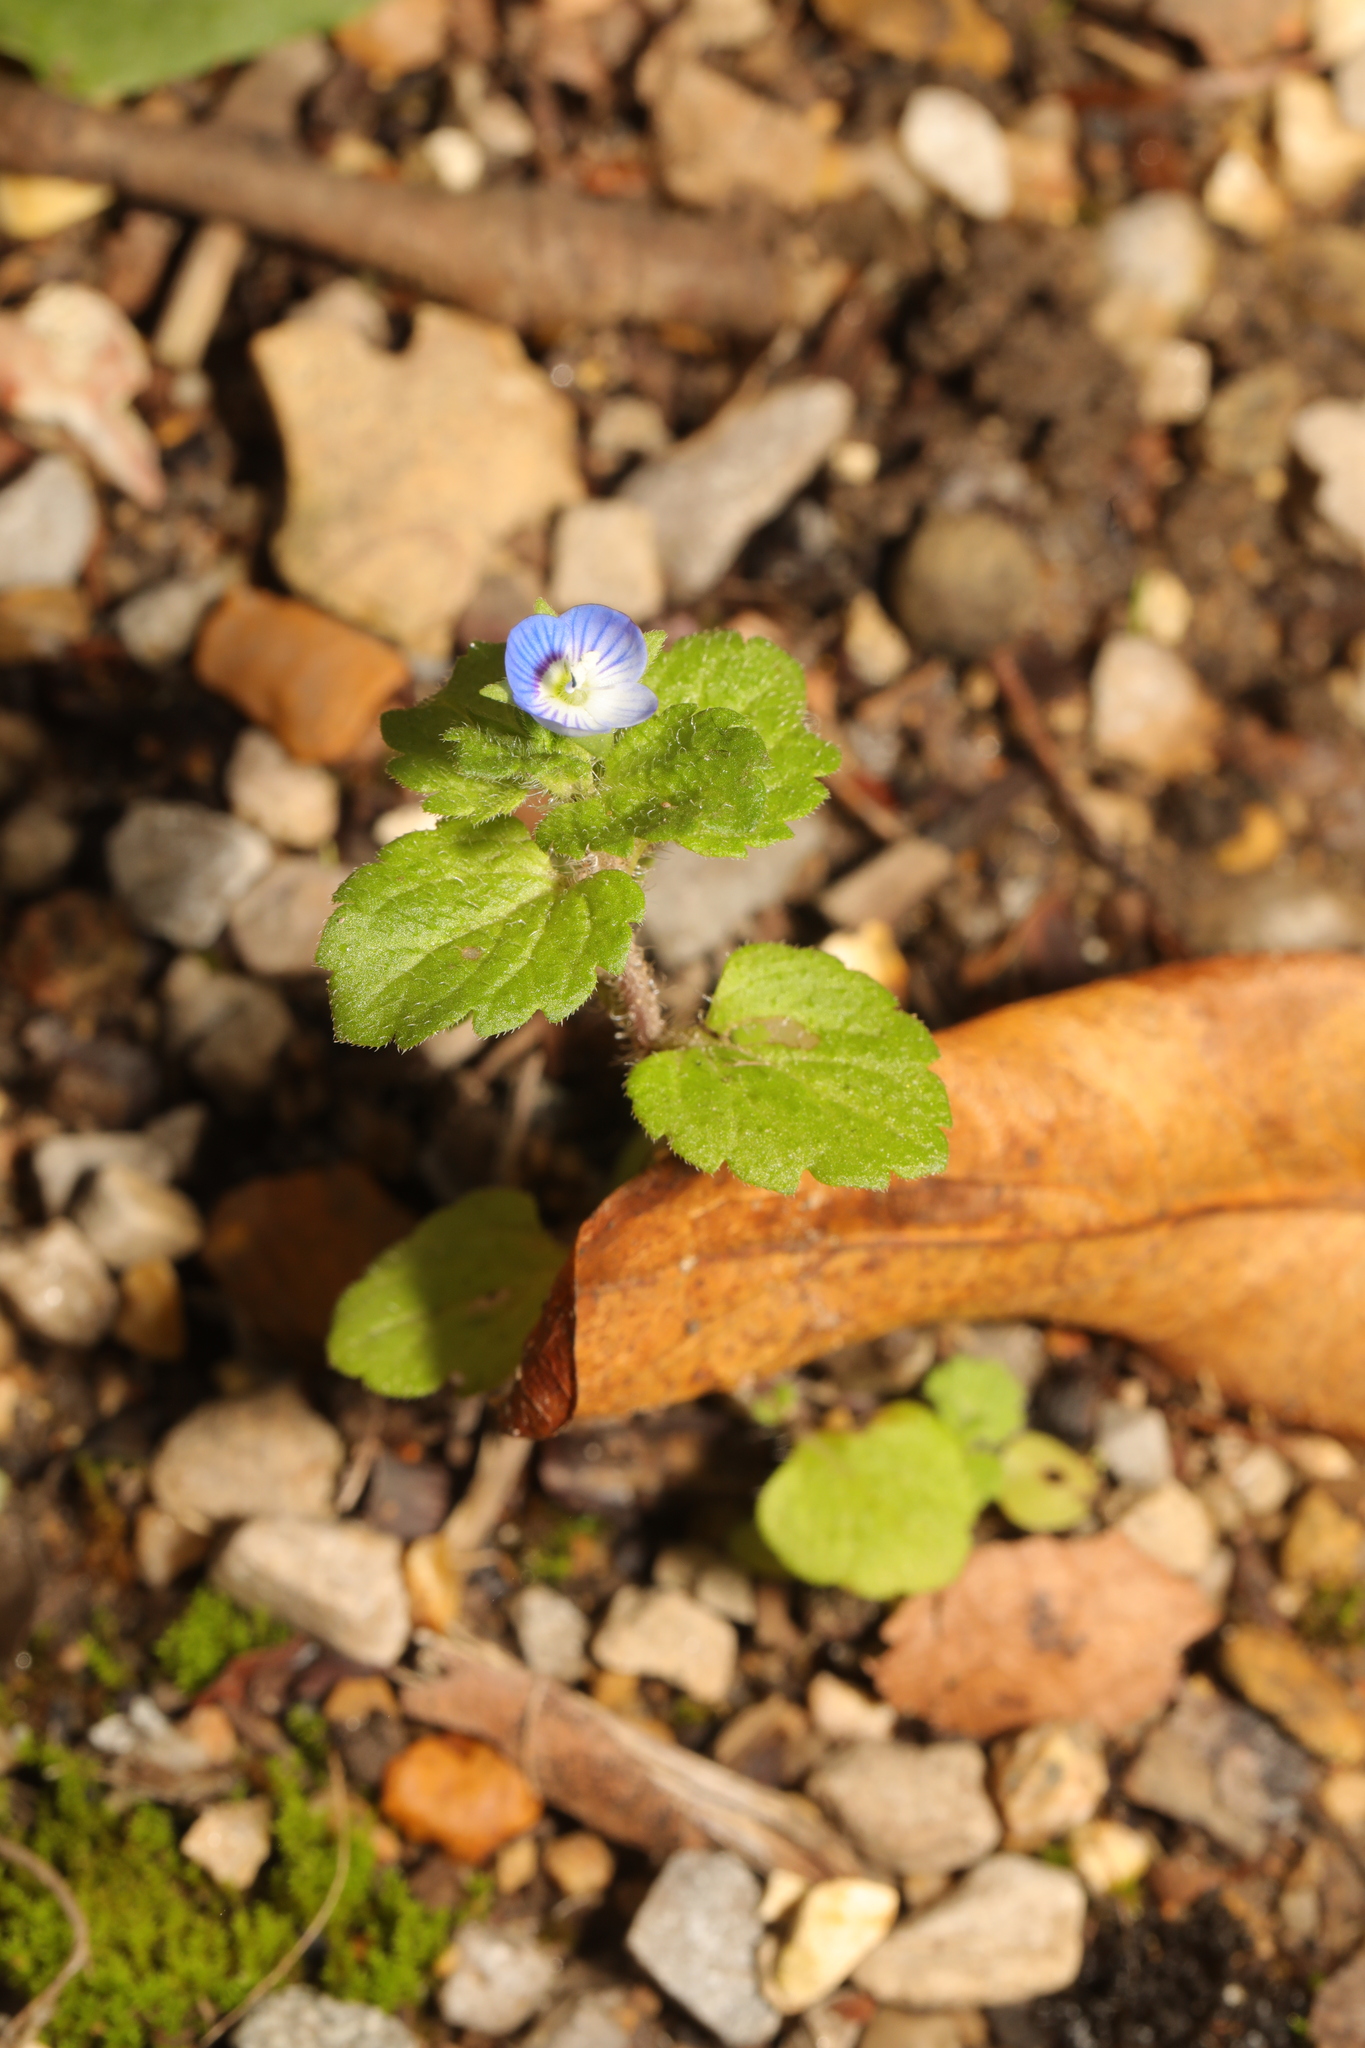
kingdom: Plantae
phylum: Tracheophyta
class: Magnoliopsida
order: Lamiales
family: Plantaginaceae
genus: Veronica
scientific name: Veronica persica
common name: Common field-speedwell
